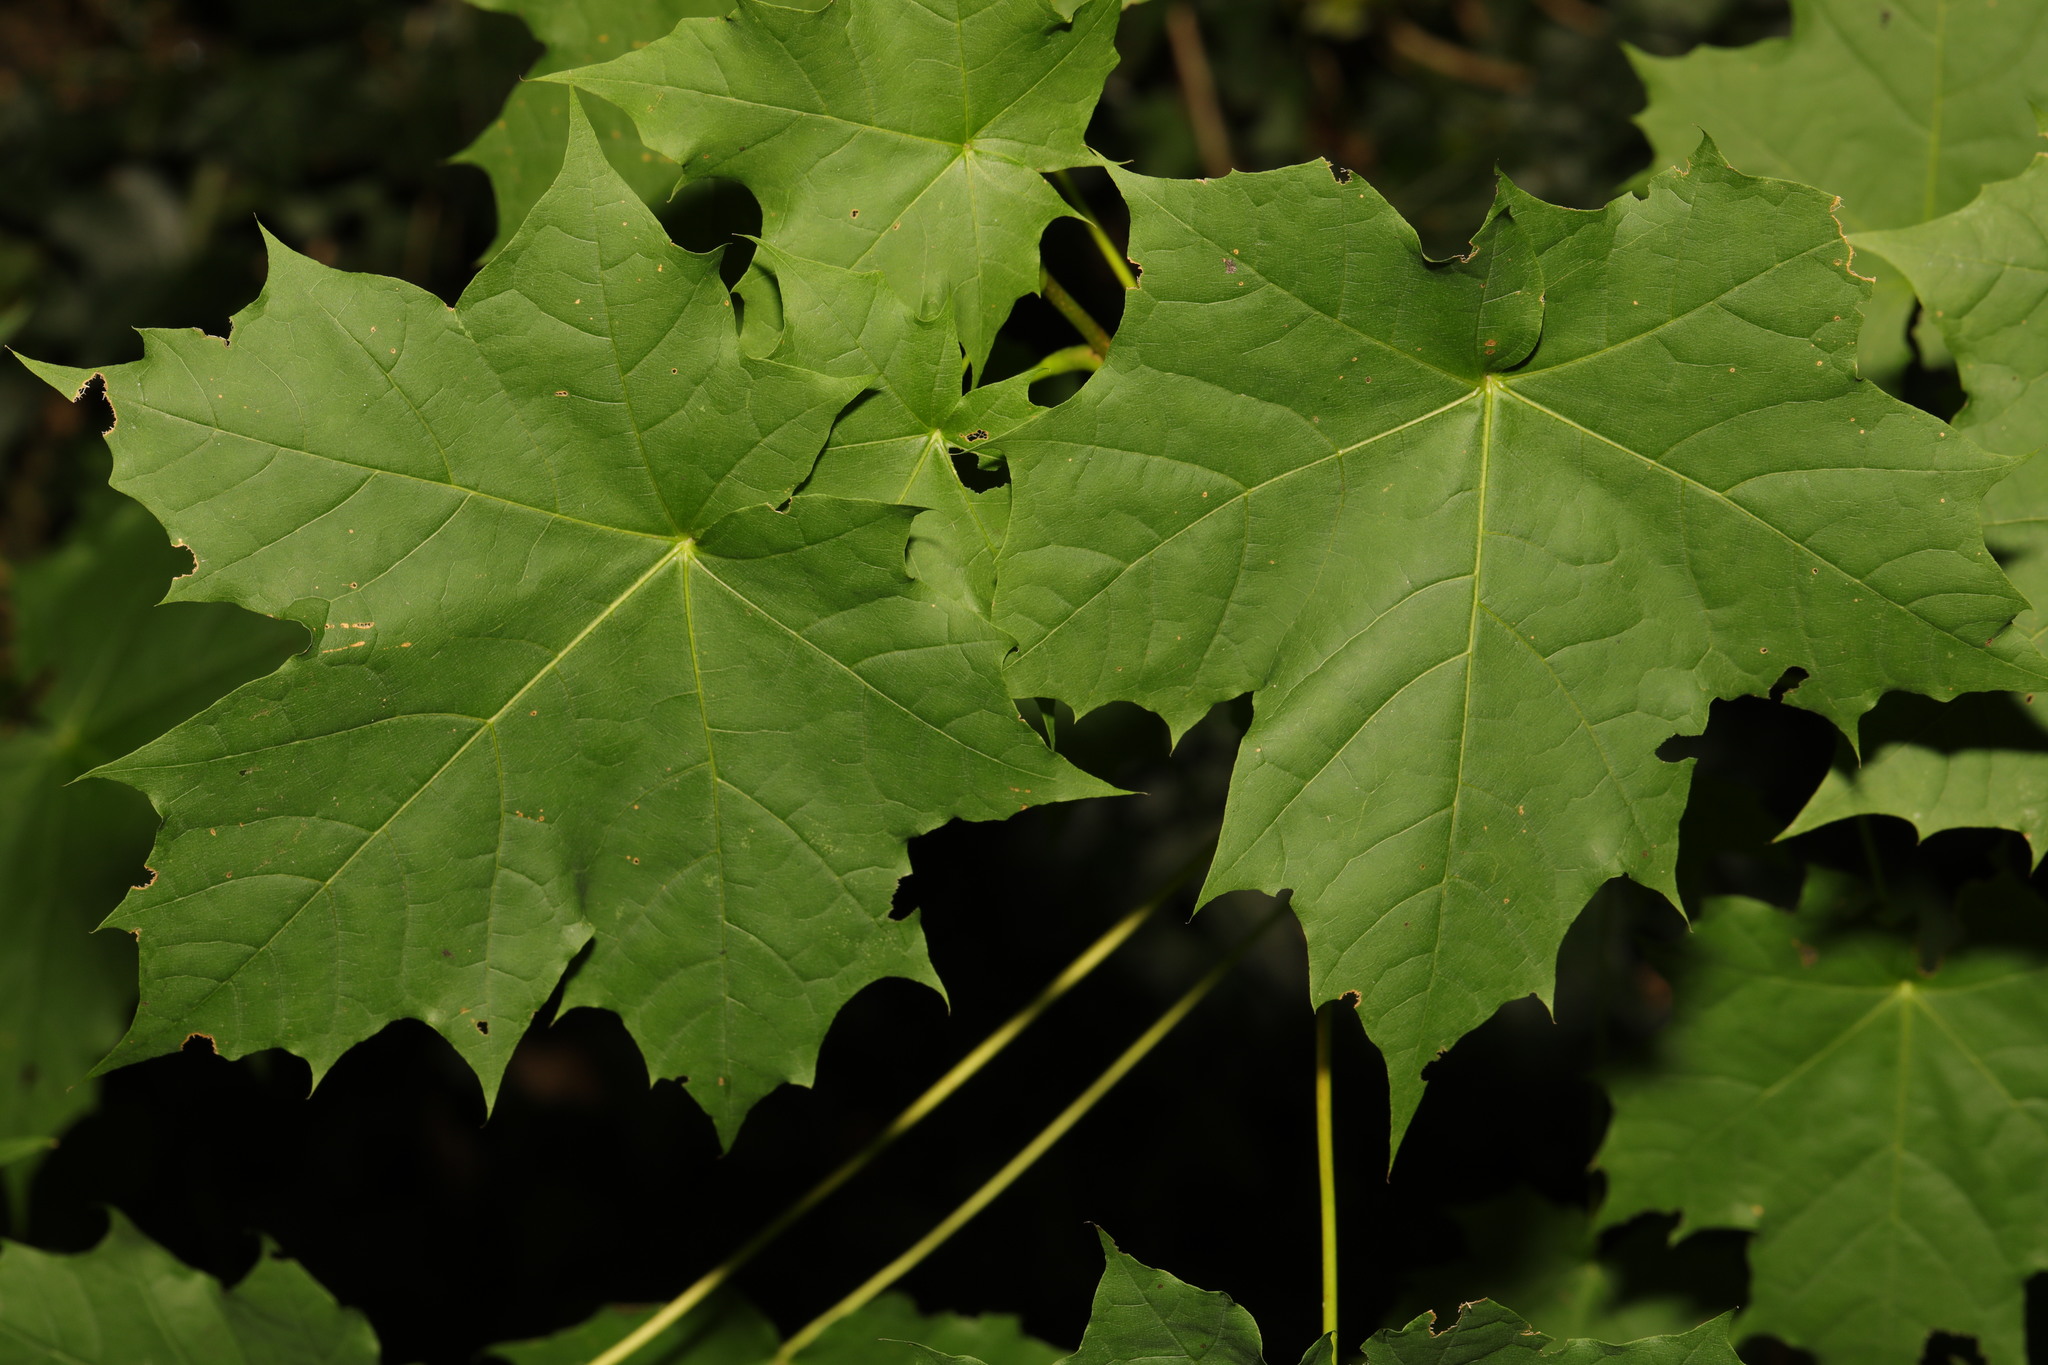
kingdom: Plantae
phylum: Tracheophyta
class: Magnoliopsida
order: Sapindales
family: Sapindaceae
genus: Acer
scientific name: Acer platanoides
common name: Norway maple
